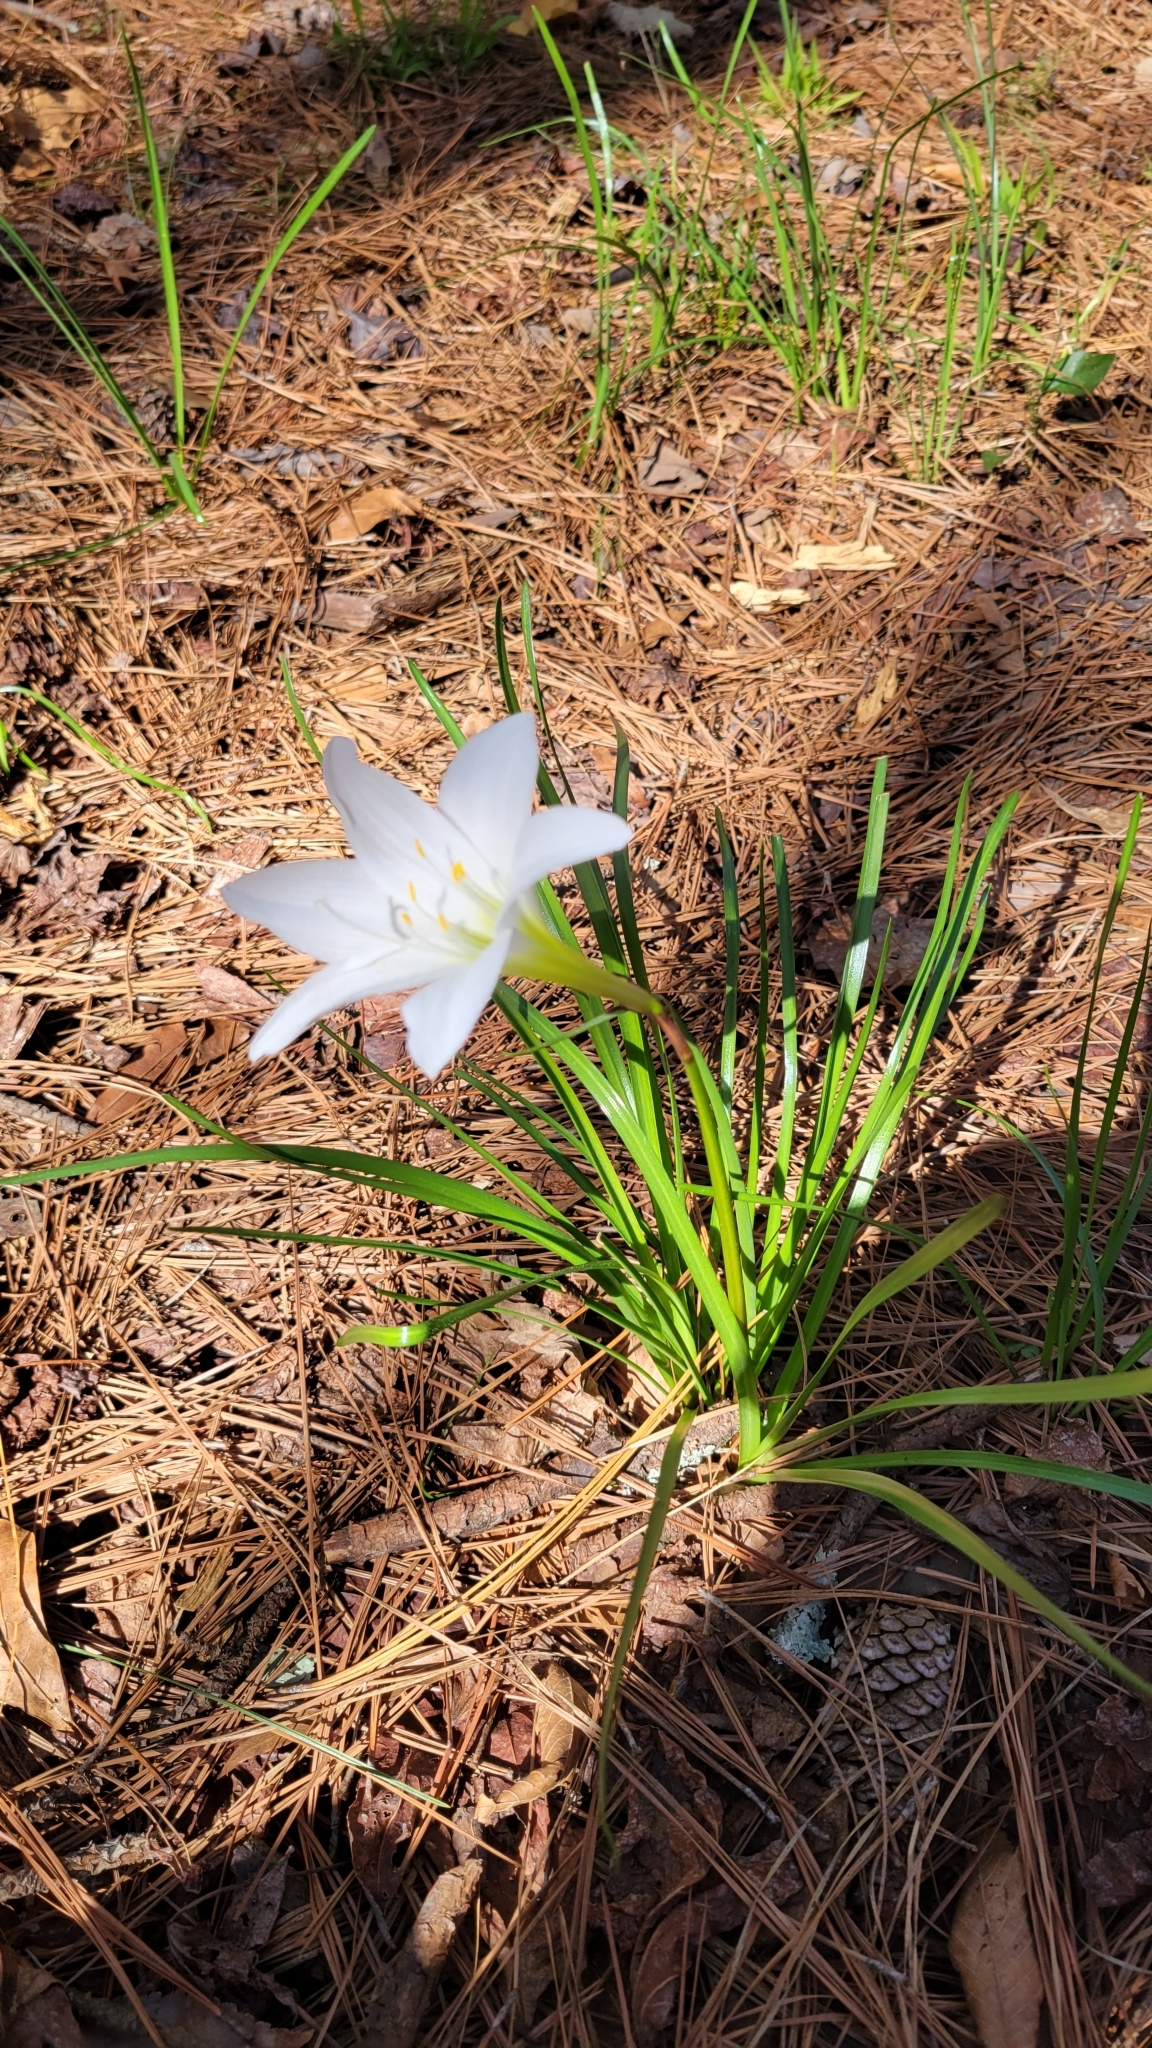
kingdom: Plantae
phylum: Tracheophyta
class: Liliopsida
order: Asparagales
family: Amaryllidaceae
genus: Zephyranthes
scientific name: Zephyranthes atamasco
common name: Atamasco lily
